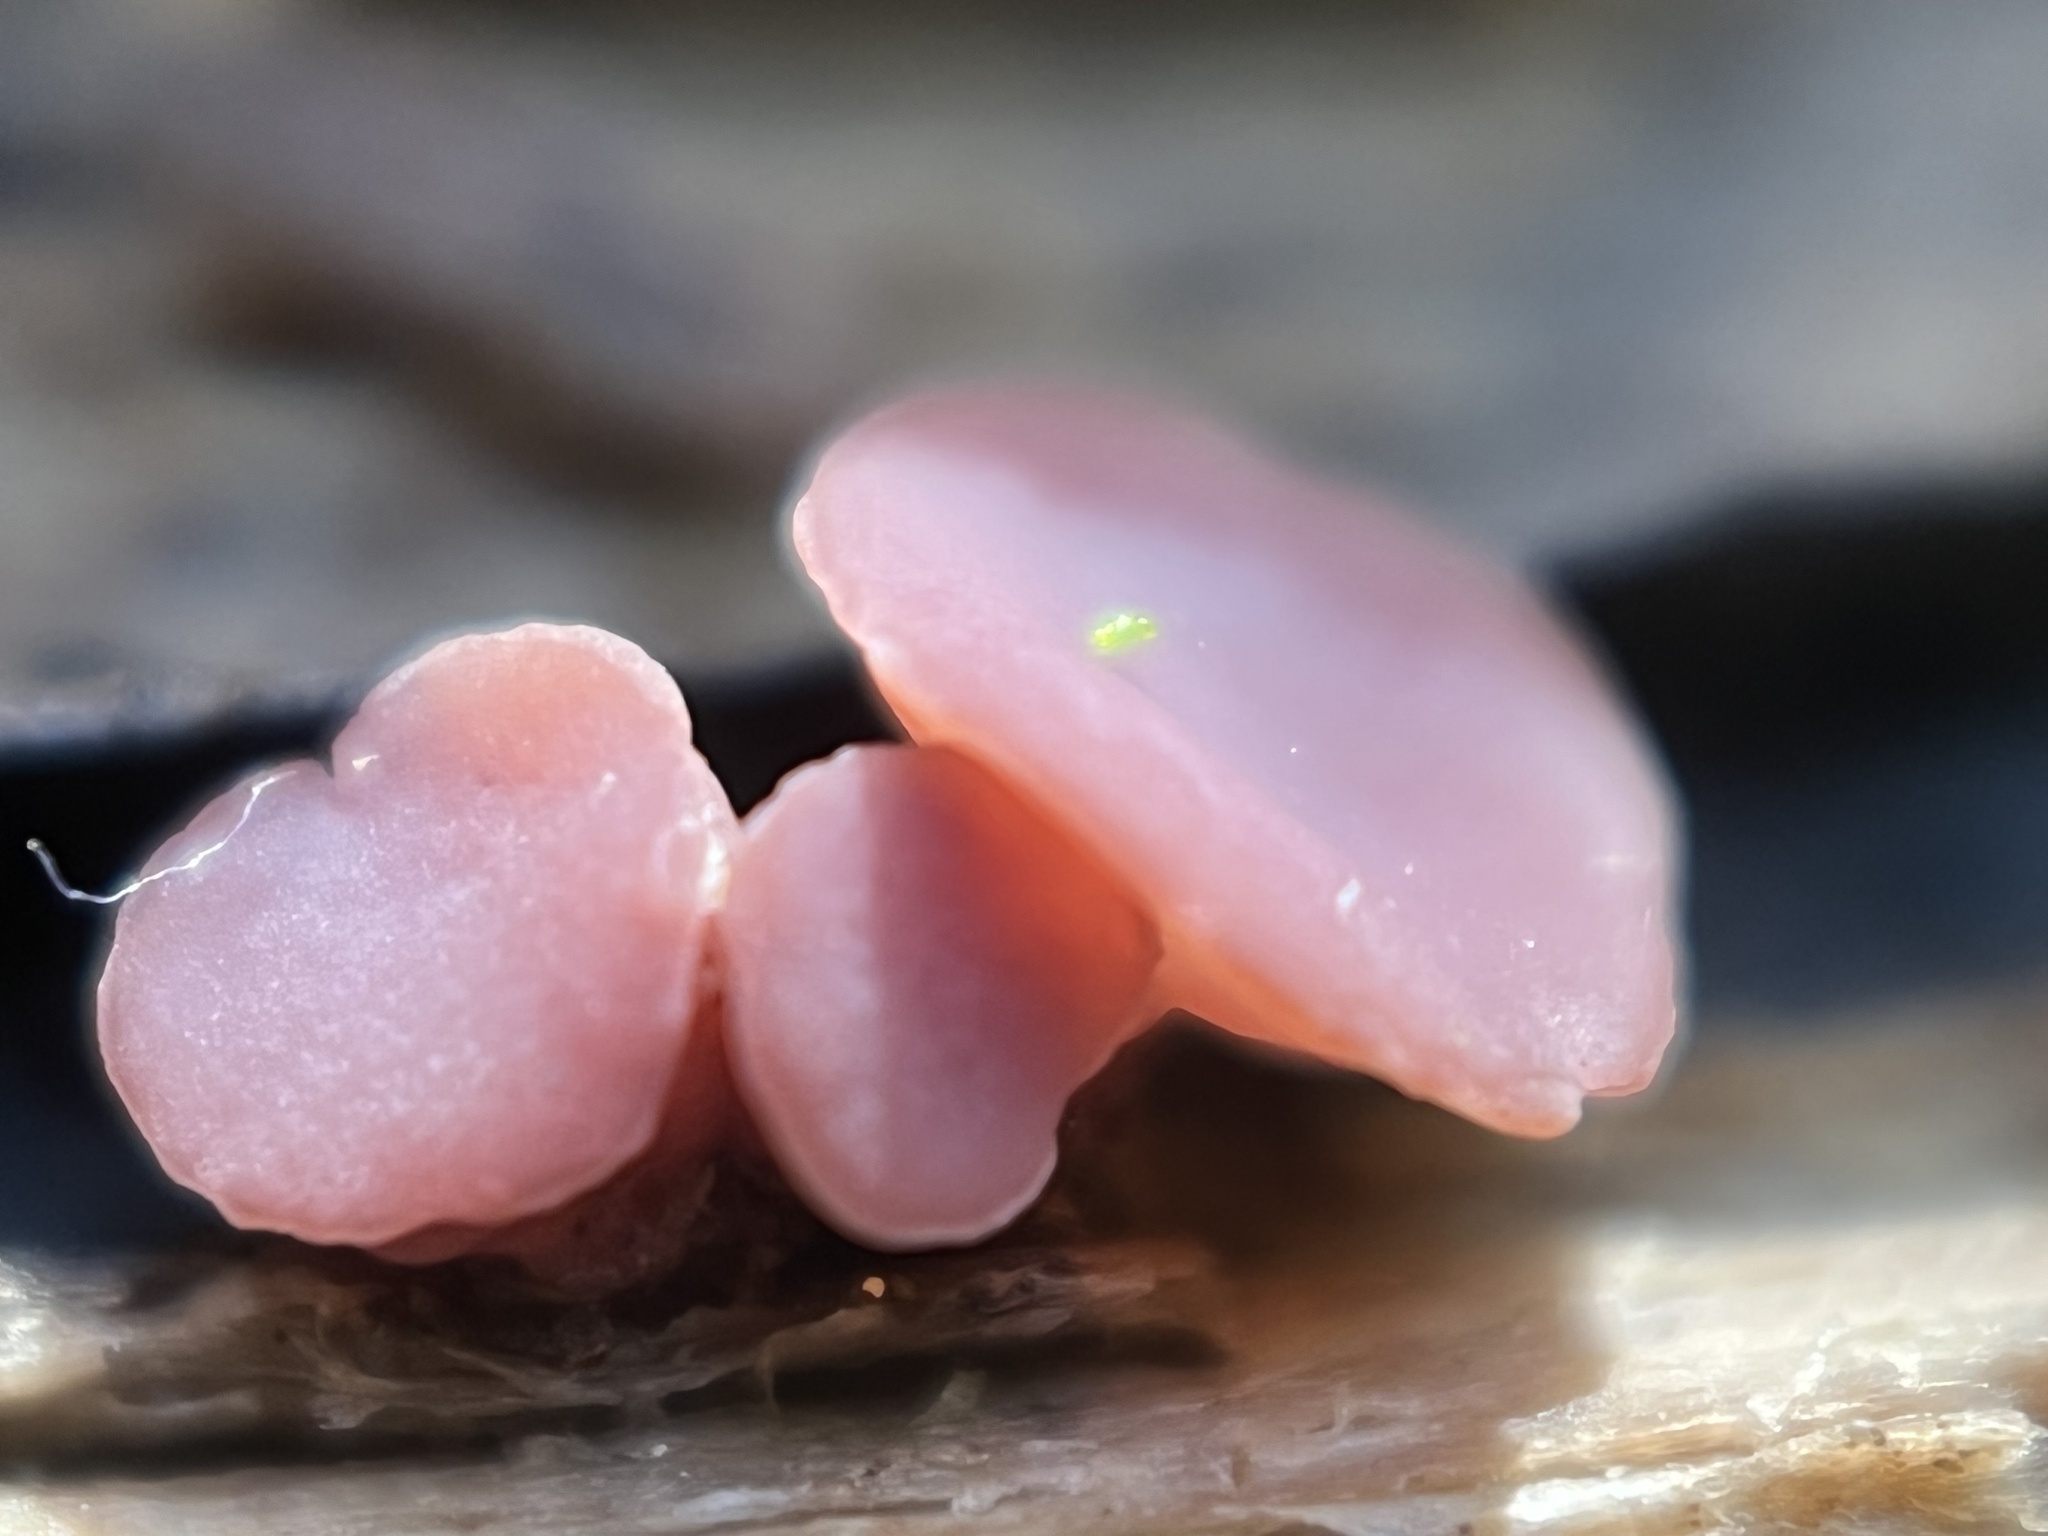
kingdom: Fungi
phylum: Ascomycota
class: Leotiomycetes
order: Helotiales
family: Gelatinodiscaceae
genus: Ascocoryne
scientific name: Ascocoryne sarcoides
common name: Purple jellydisc
